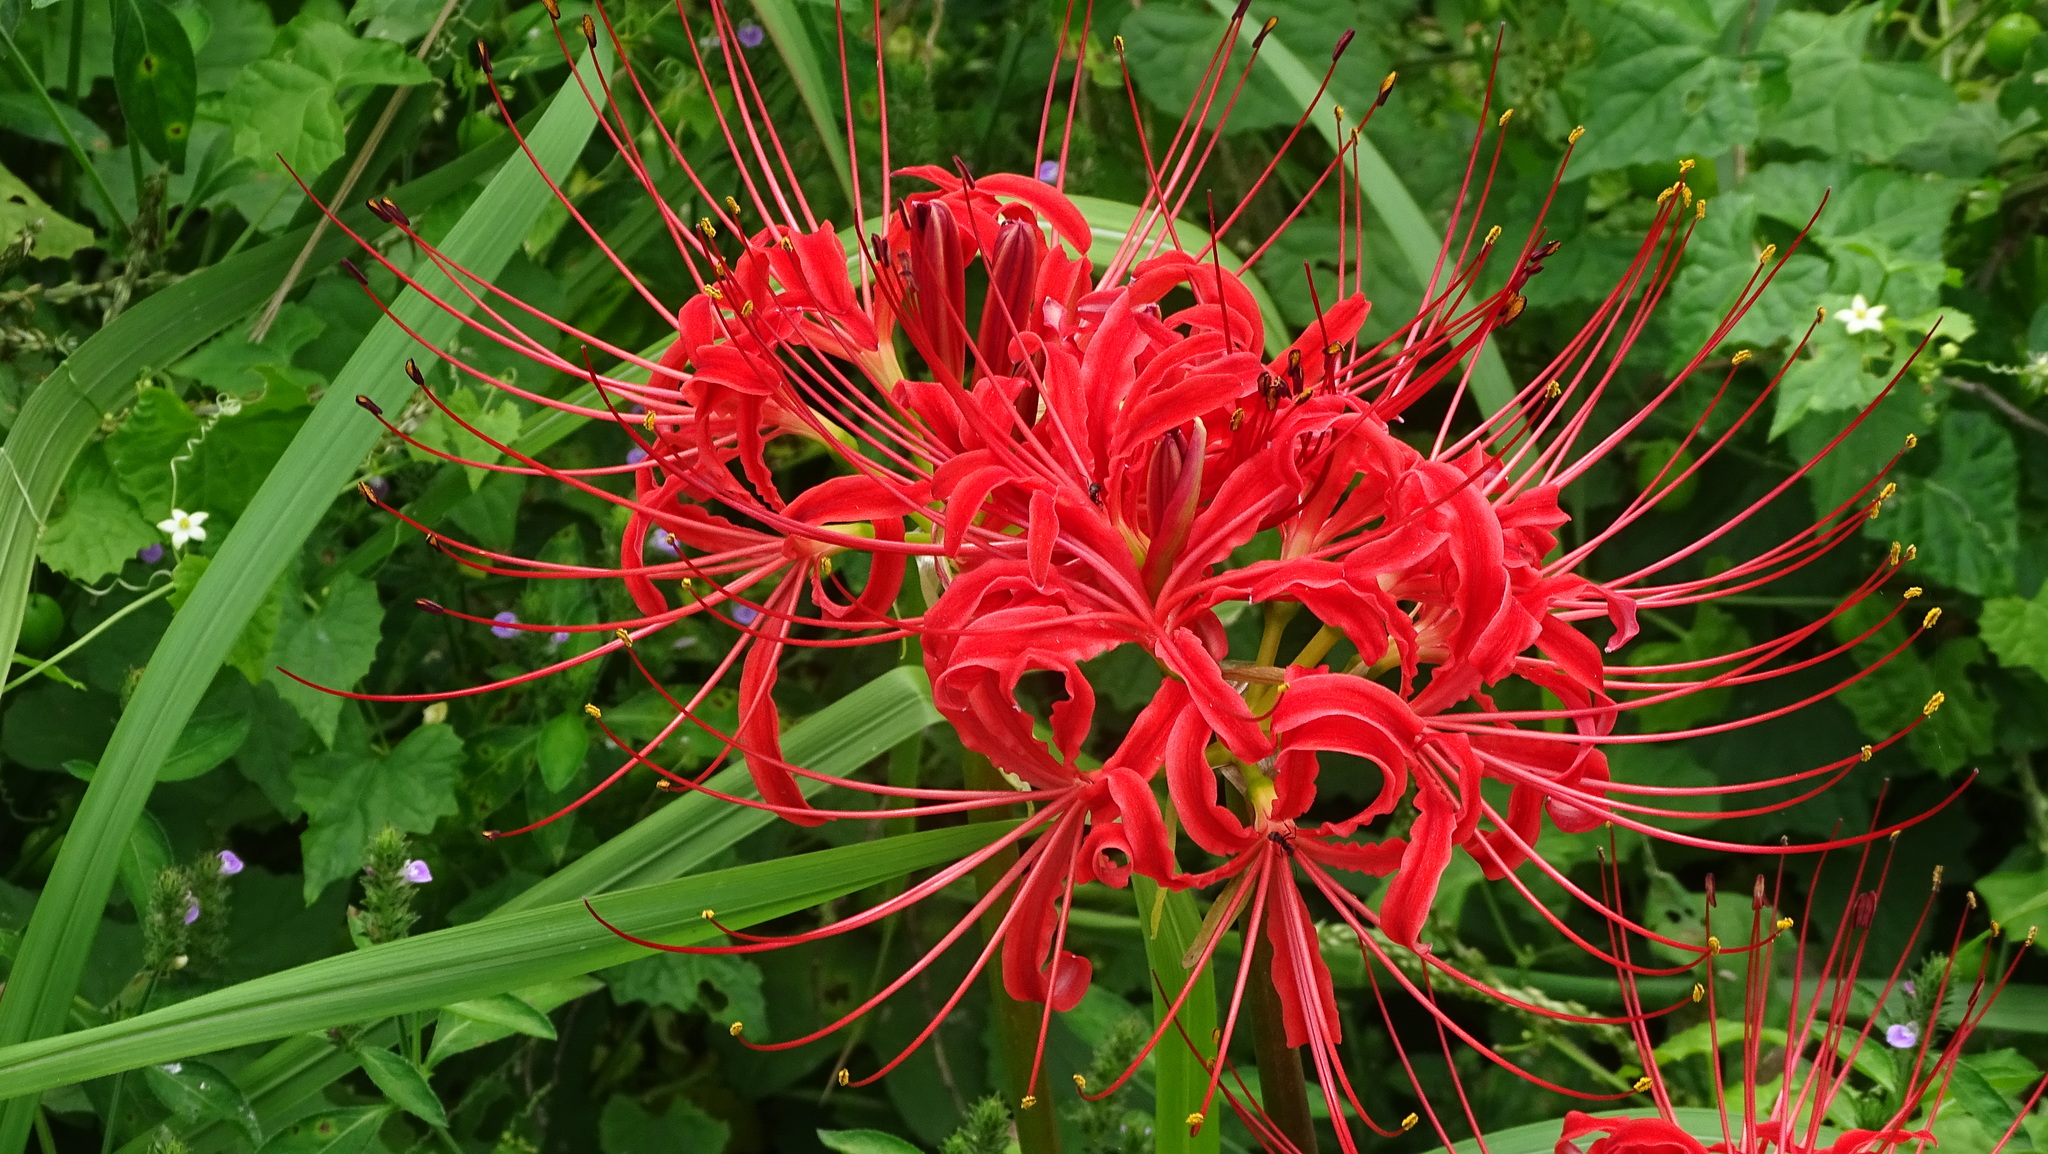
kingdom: Plantae
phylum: Tracheophyta
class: Liliopsida
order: Asparagales
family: Amaryllidaceae
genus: Lycoris
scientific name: Lycoris radiata
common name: Red spider lily
